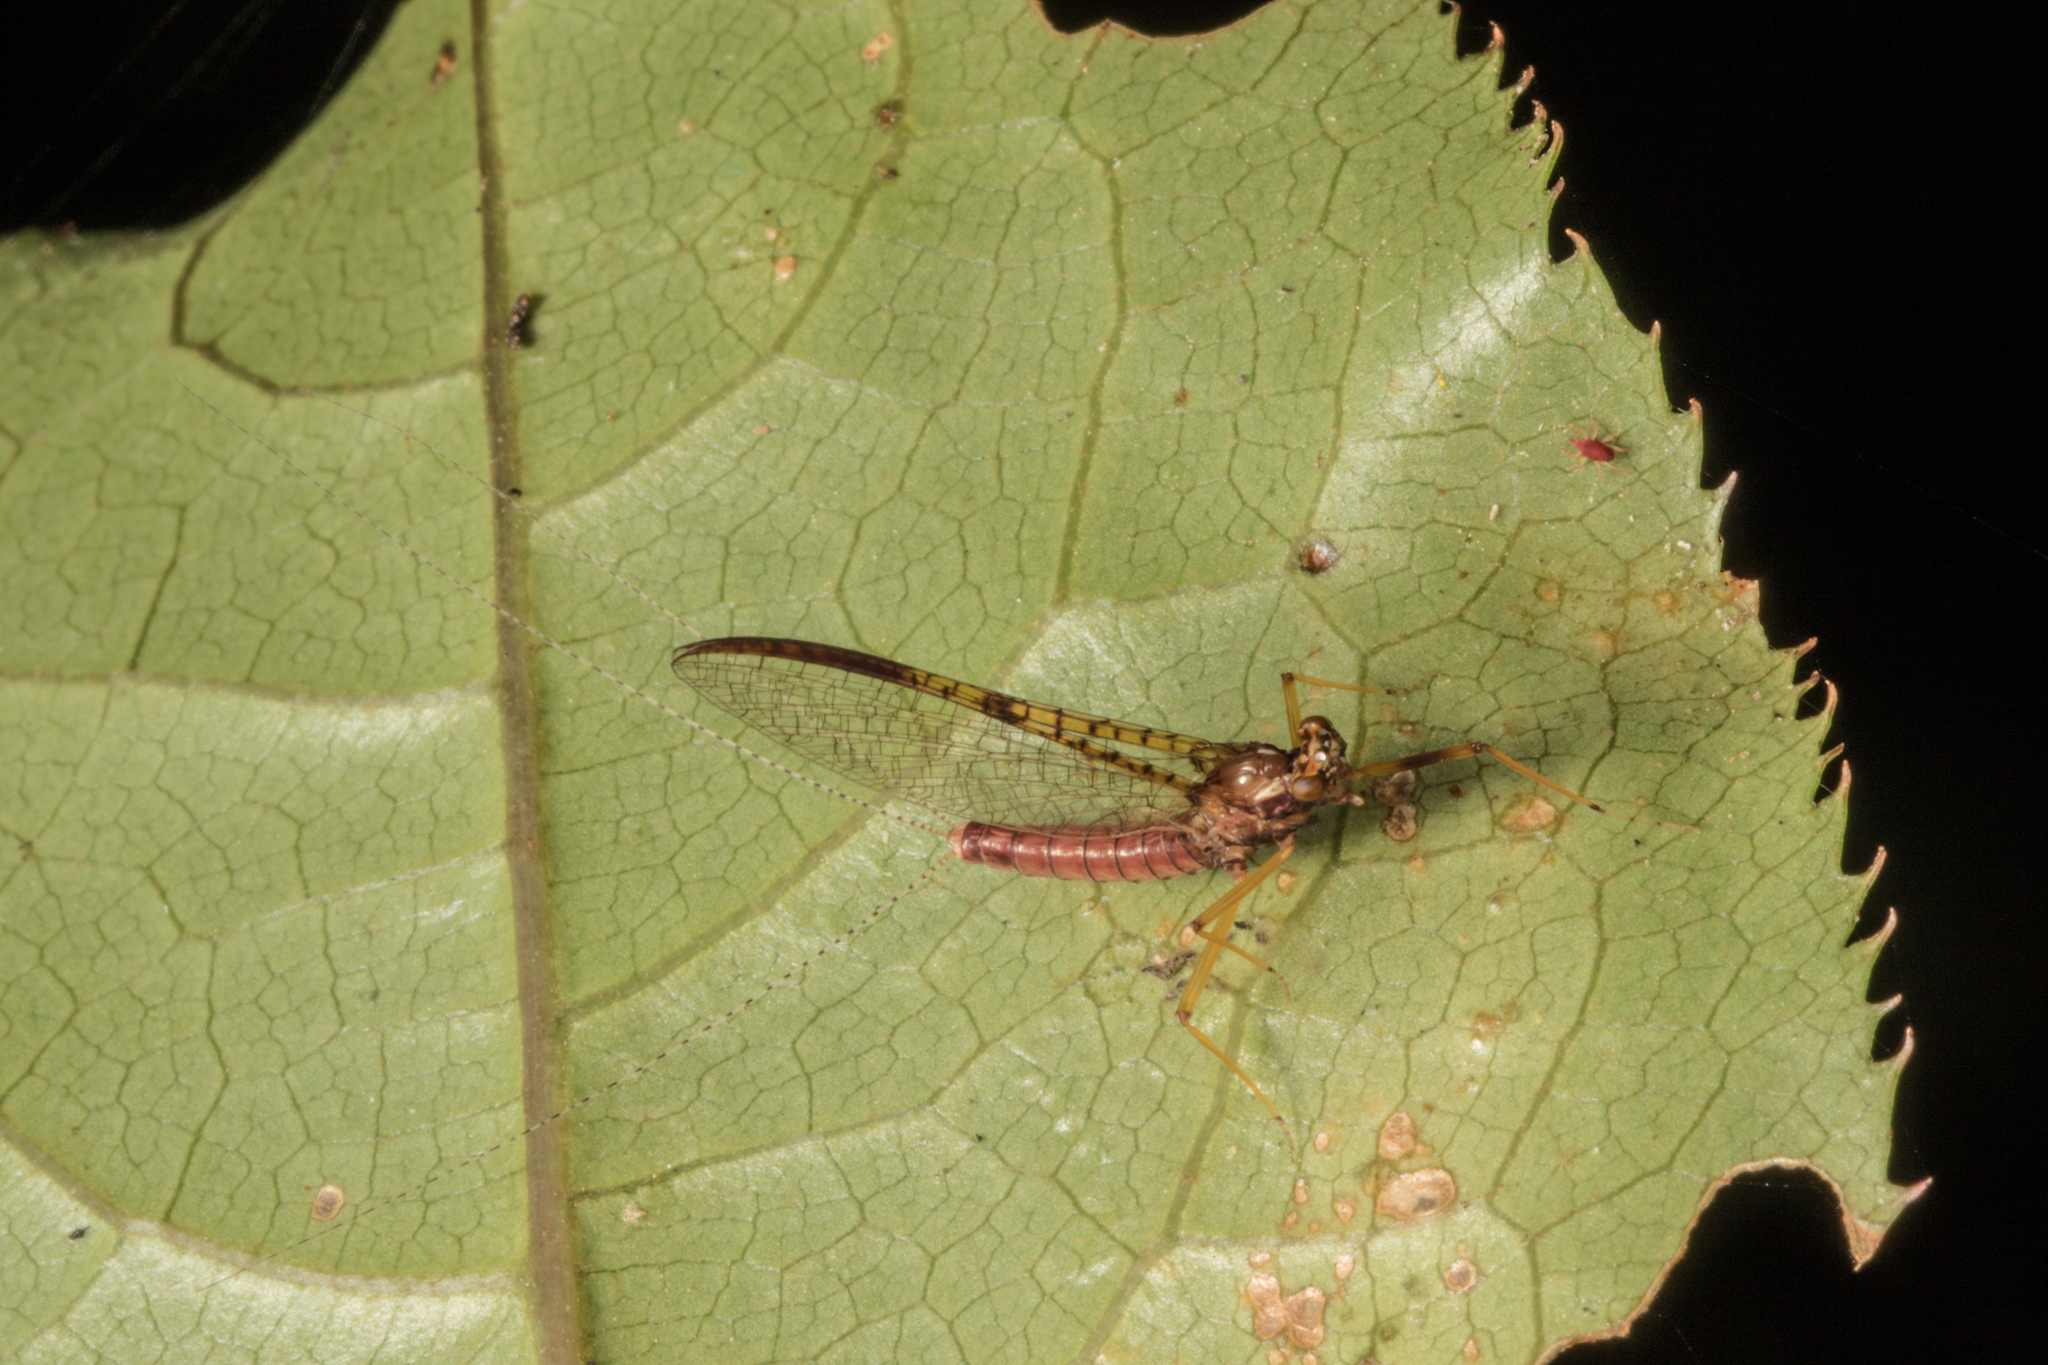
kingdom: Animalia
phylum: Arthropoda
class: Insecta
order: Ephemeroptera
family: Leptophlebiidae
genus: Zephlebia
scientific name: Zephlebia borealis
